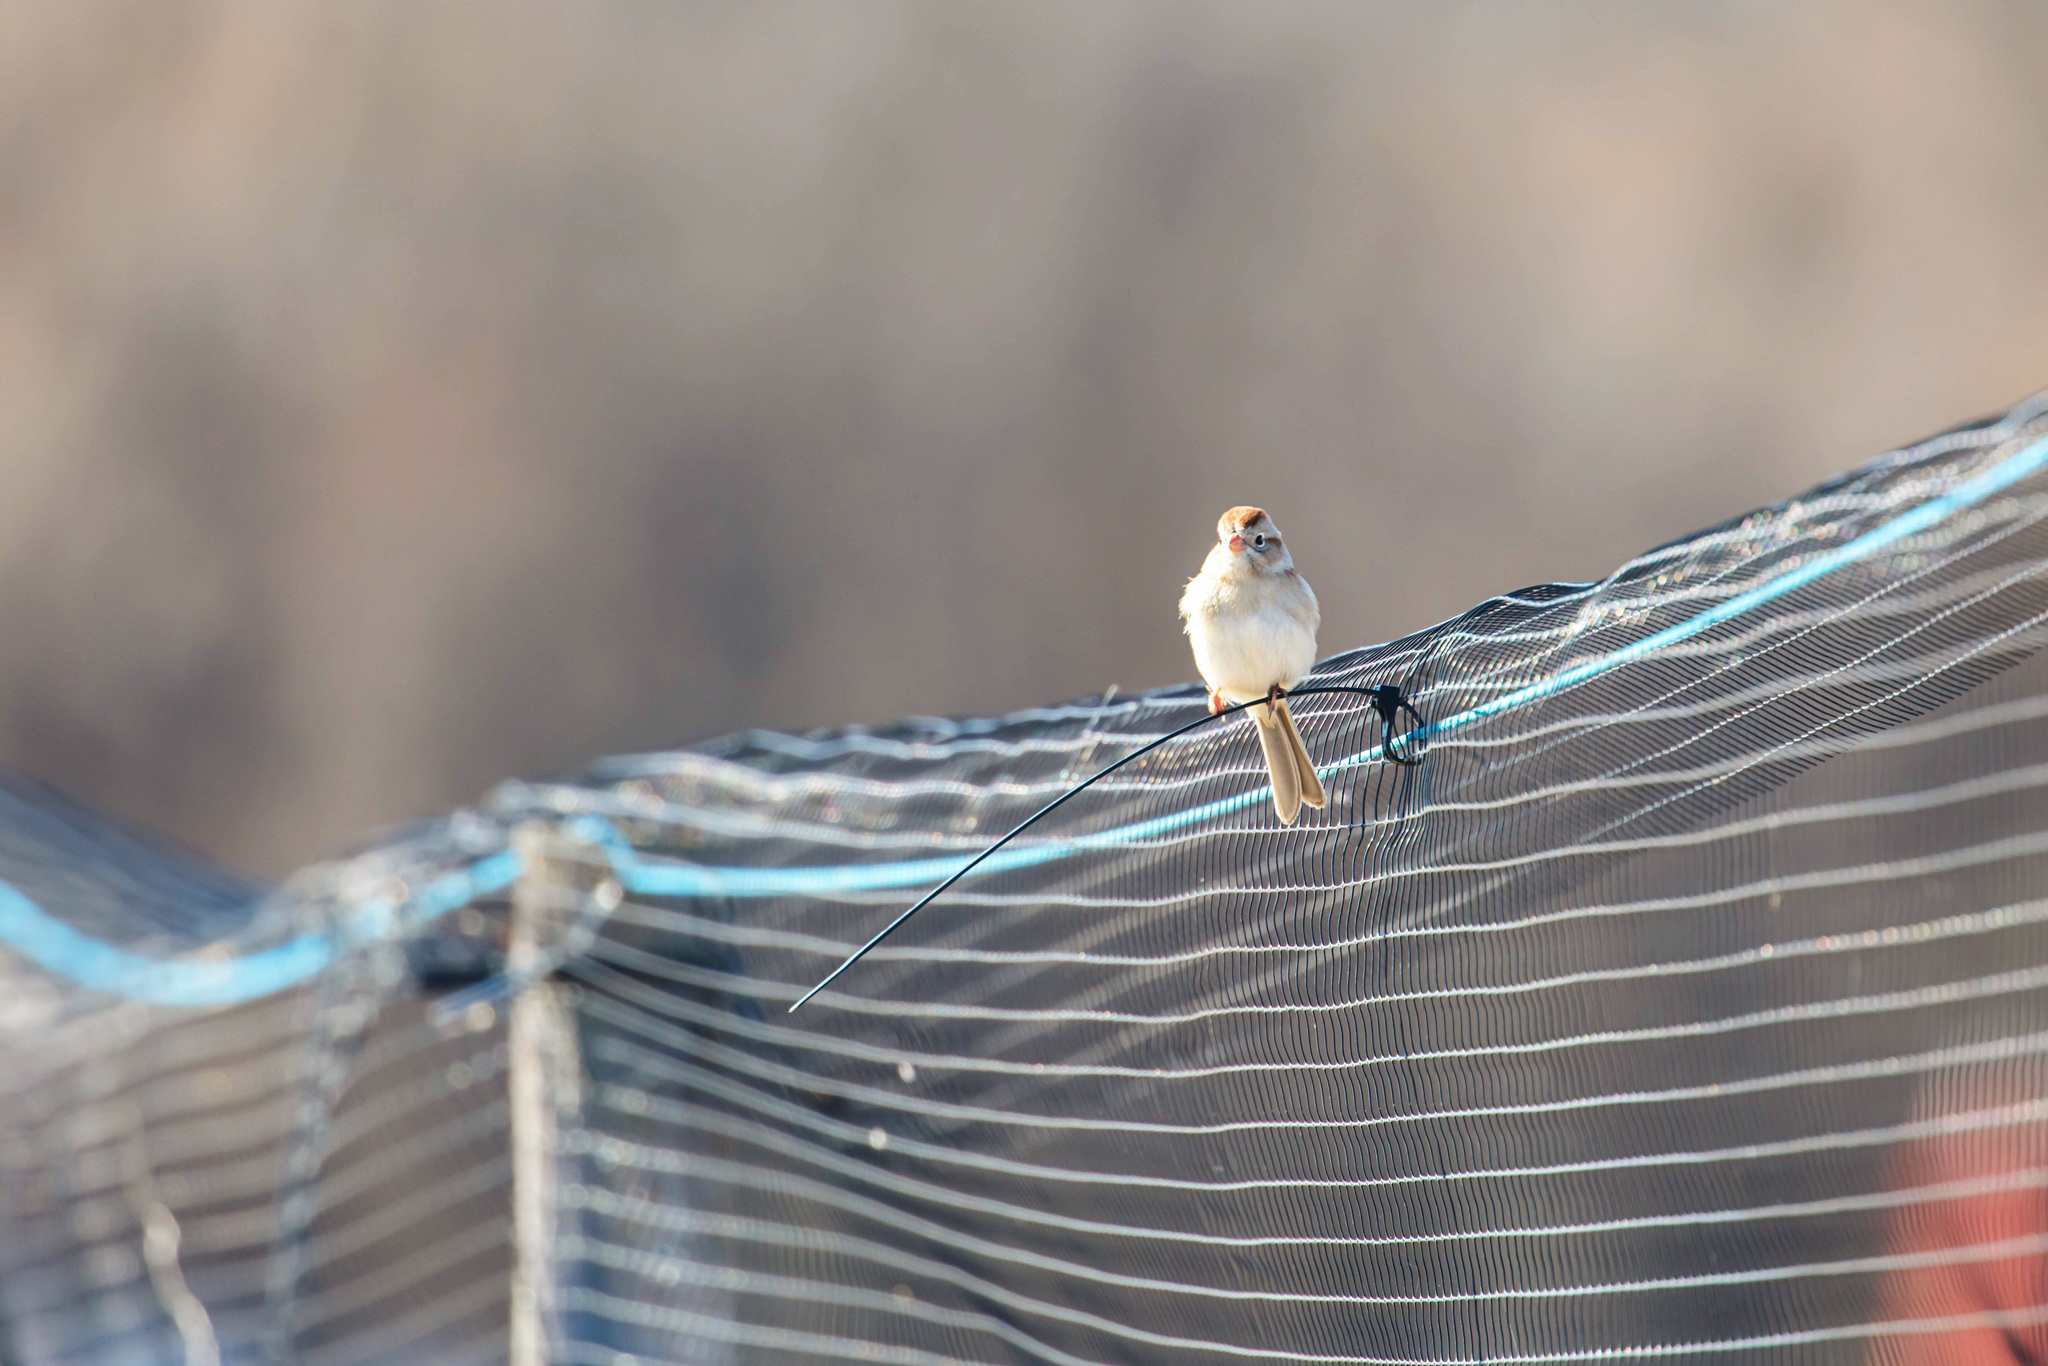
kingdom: Animalia
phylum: Chordata
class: Aves
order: Passeriformes
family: Passerellidae
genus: Spizella
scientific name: Spizella pusilla
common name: Field sparrow
